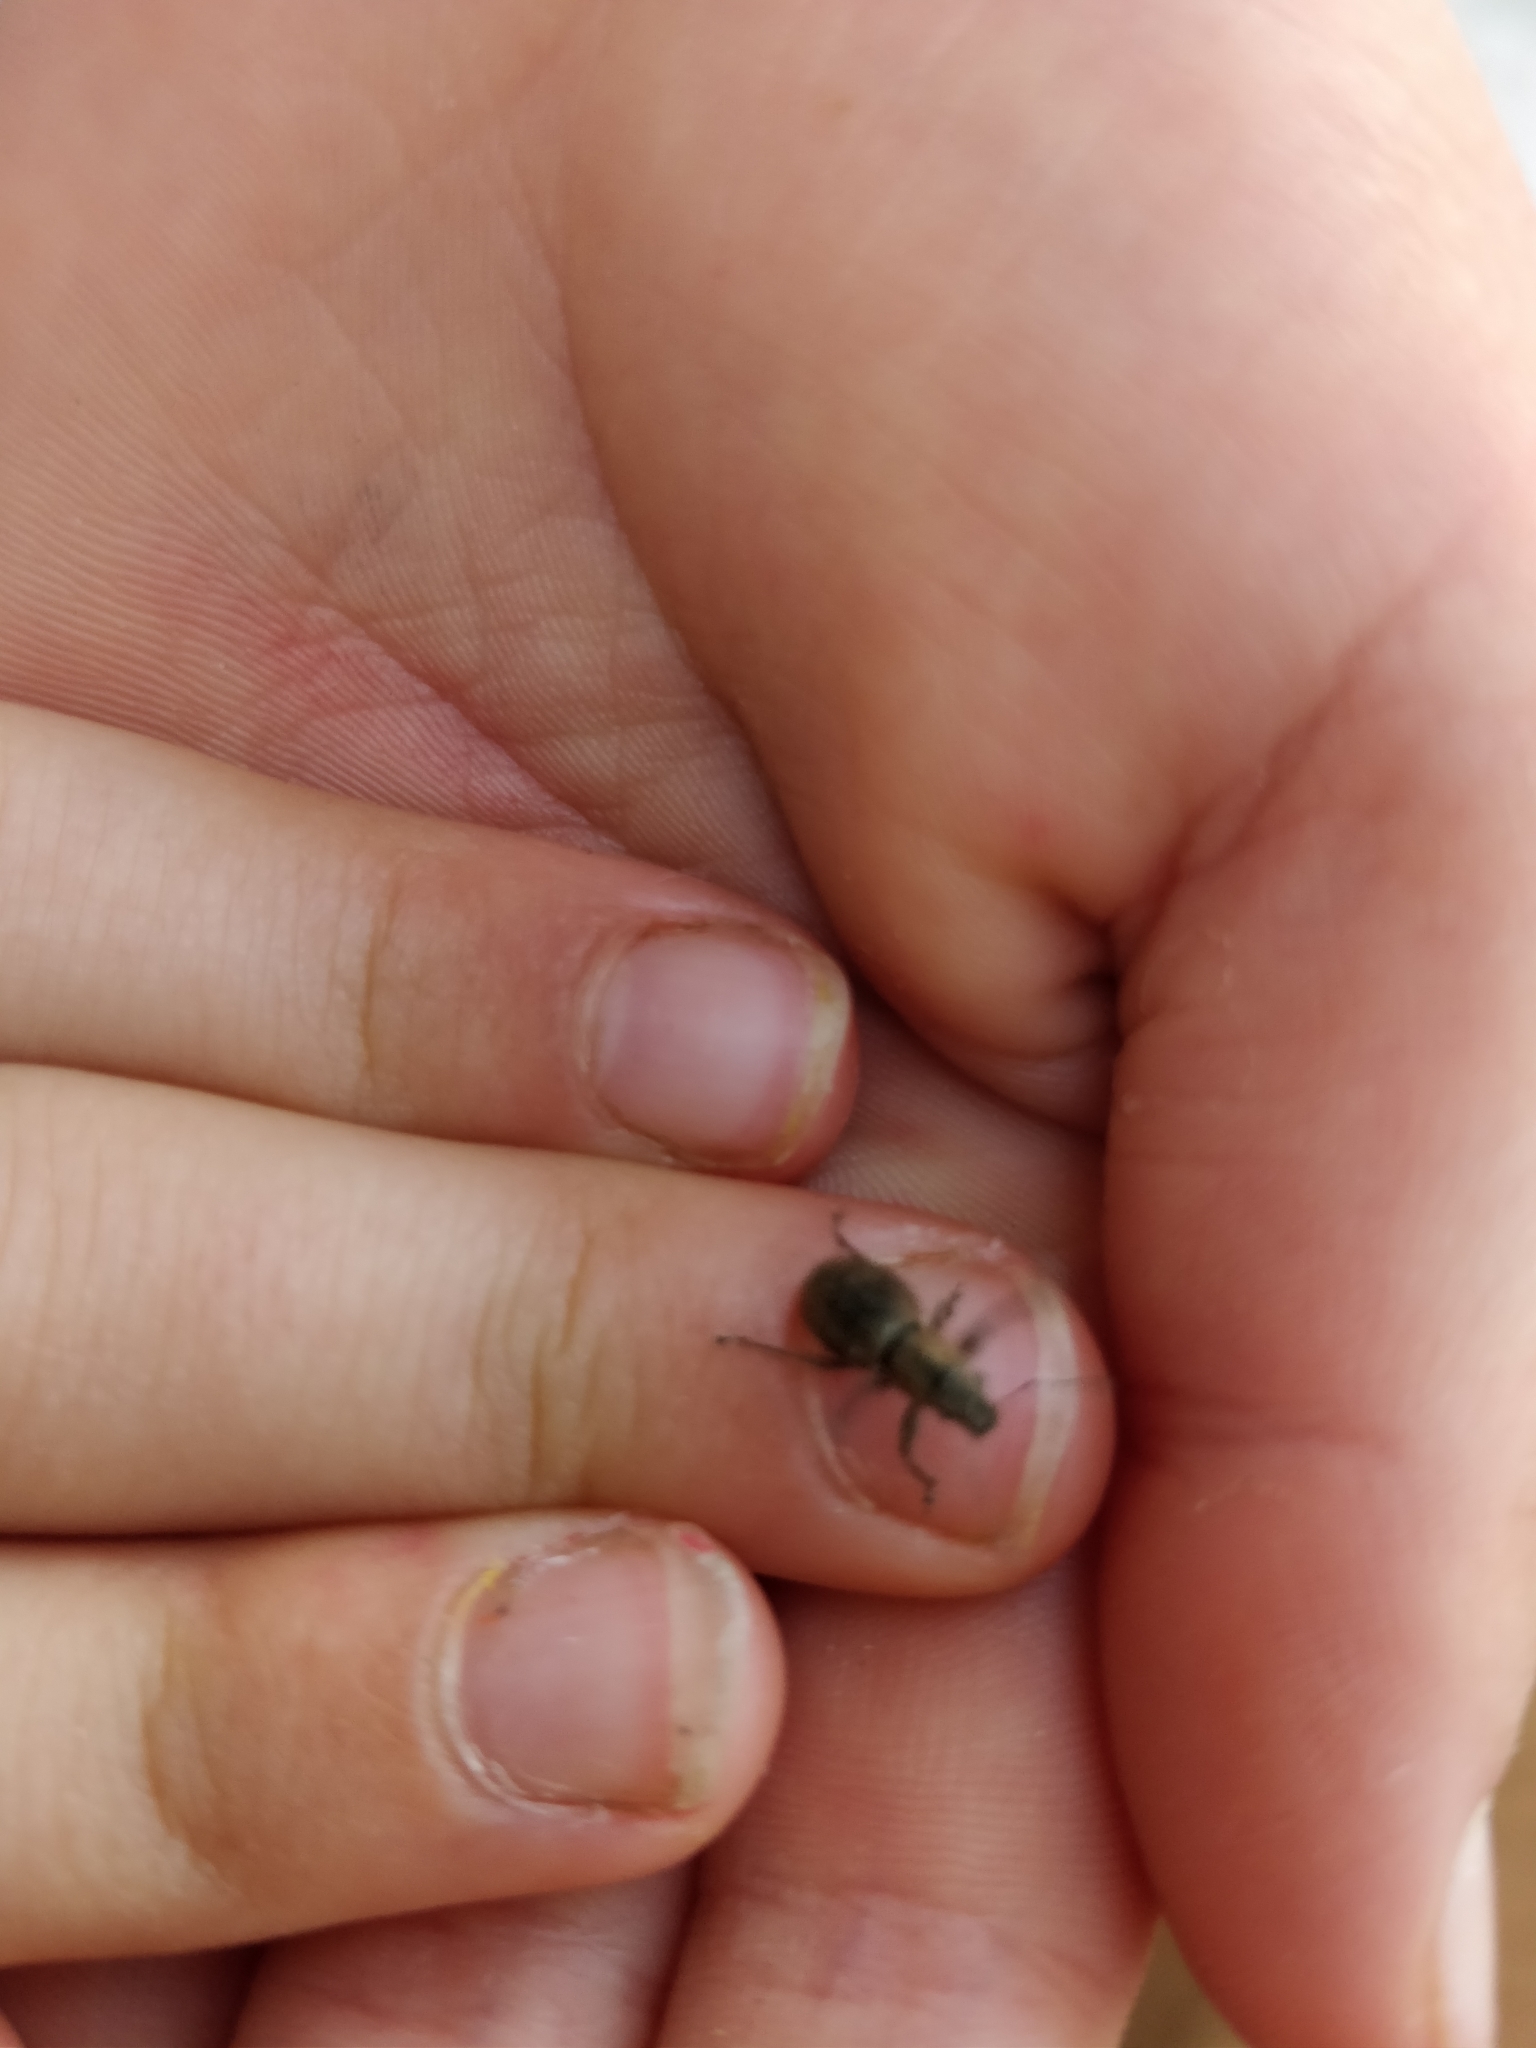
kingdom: Animalia
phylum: Arthropoda
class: Insecta
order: Coleoptera
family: Curculionidae
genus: Naupactus
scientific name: Naupactus cervinus
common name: Fuller rose beetle
